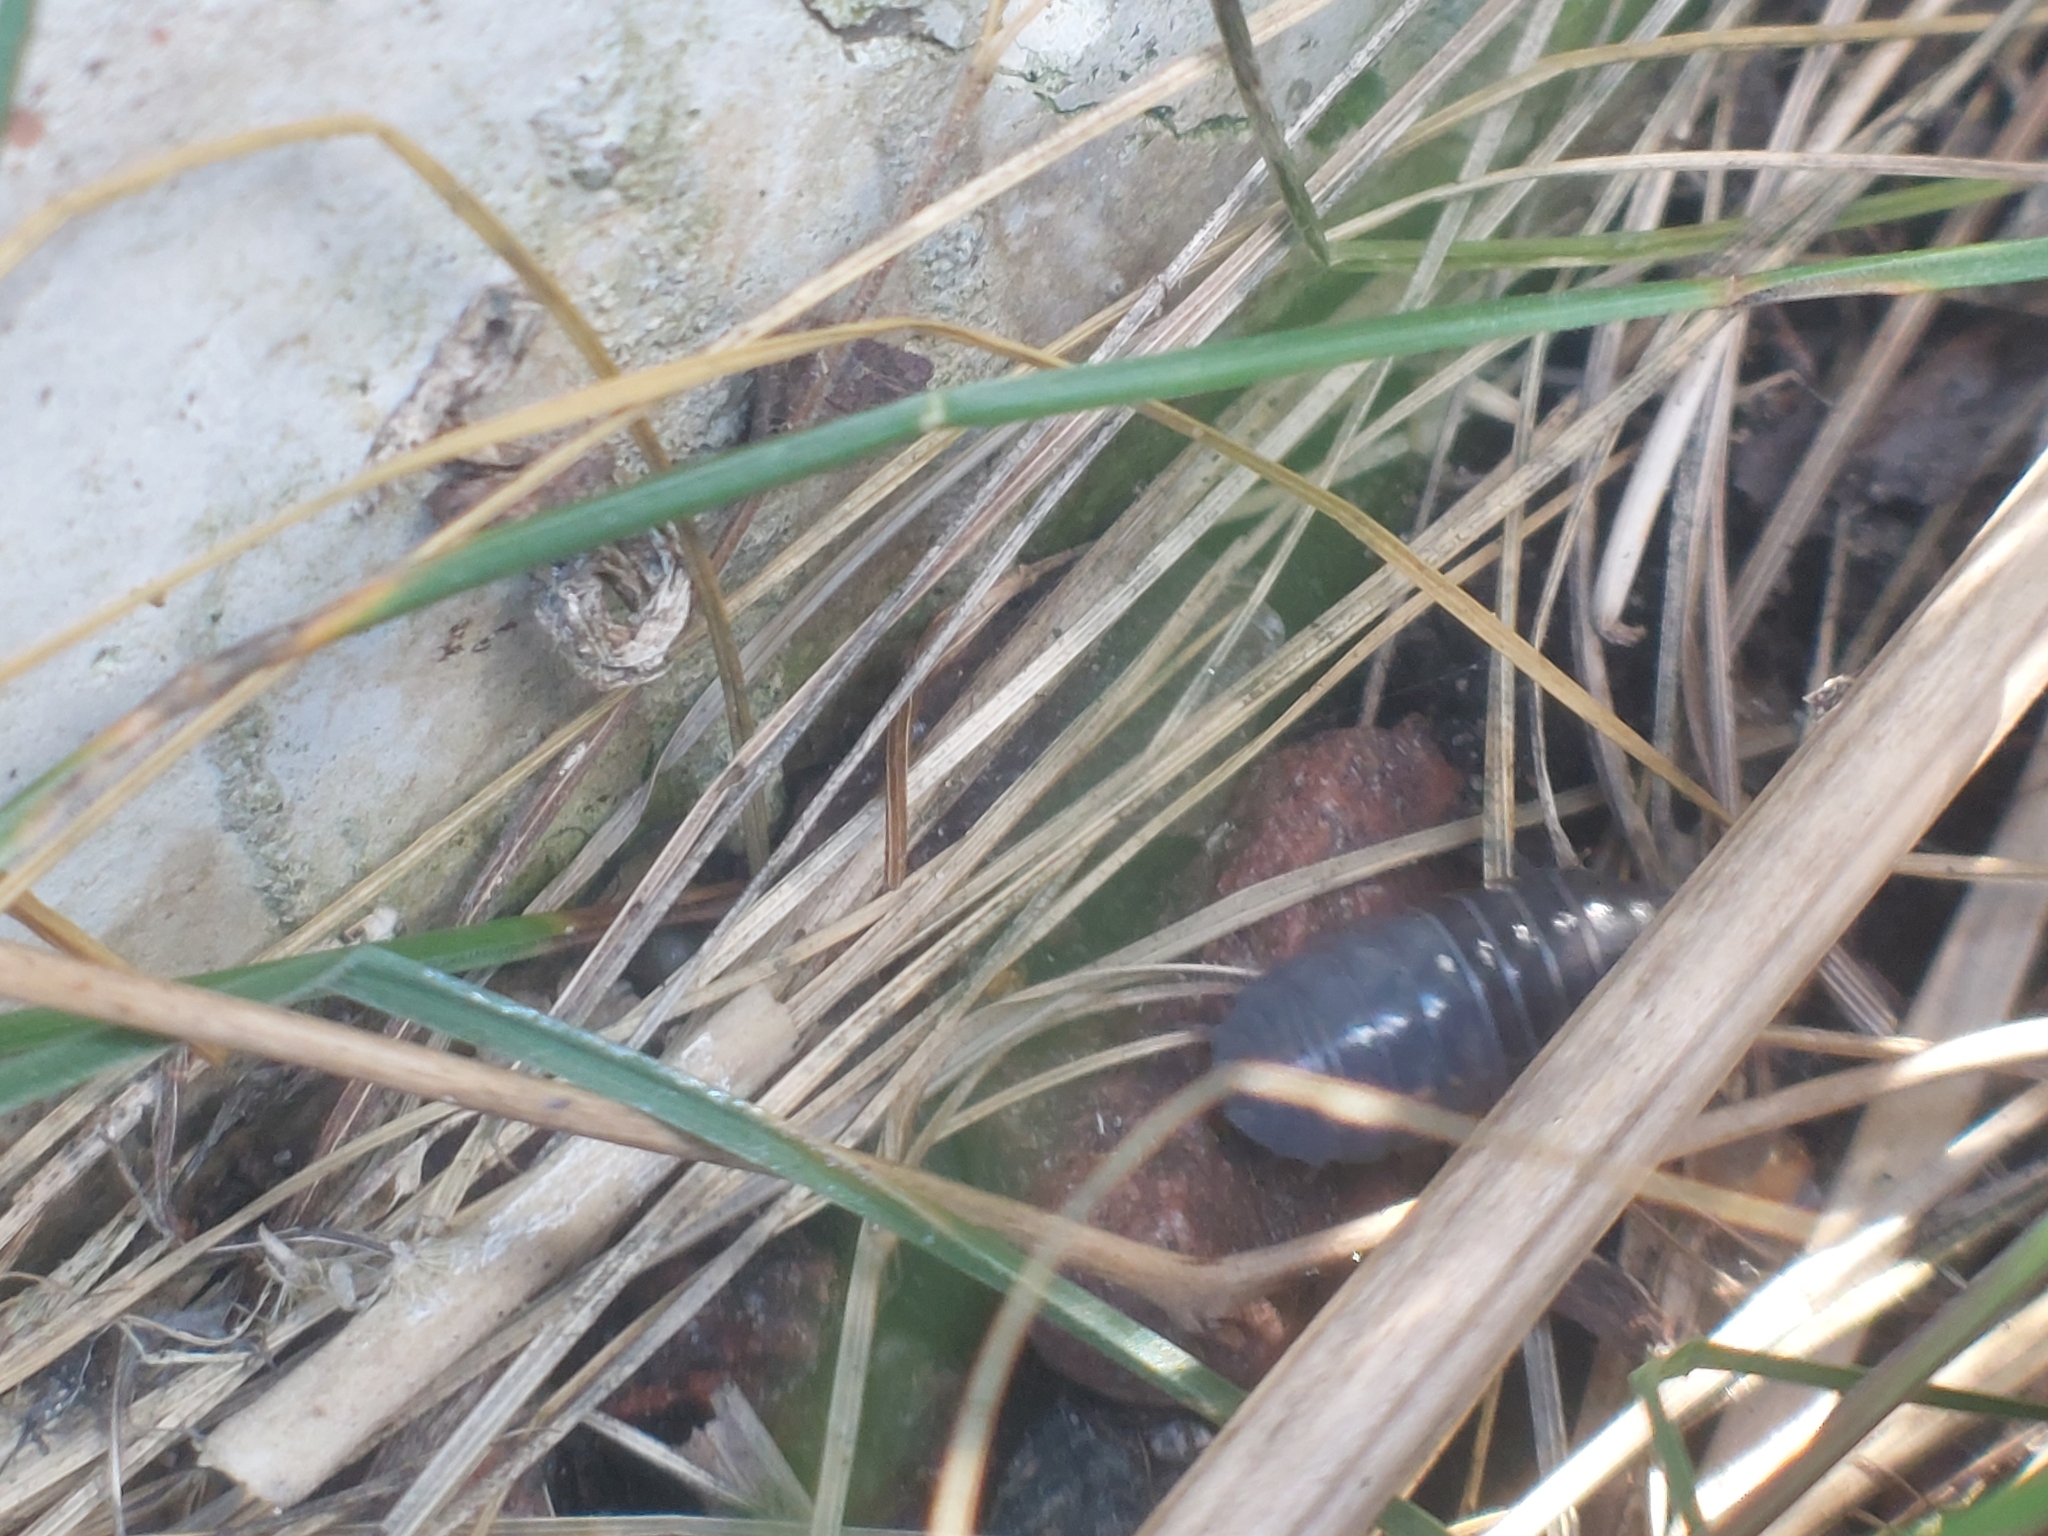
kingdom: Animalia
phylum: Arthropoda
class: Malacostraca
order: Isopoda
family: Armadillidiidae
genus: Armadillidium
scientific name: Armadillidium vulgare
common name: Common pill woodlouse
